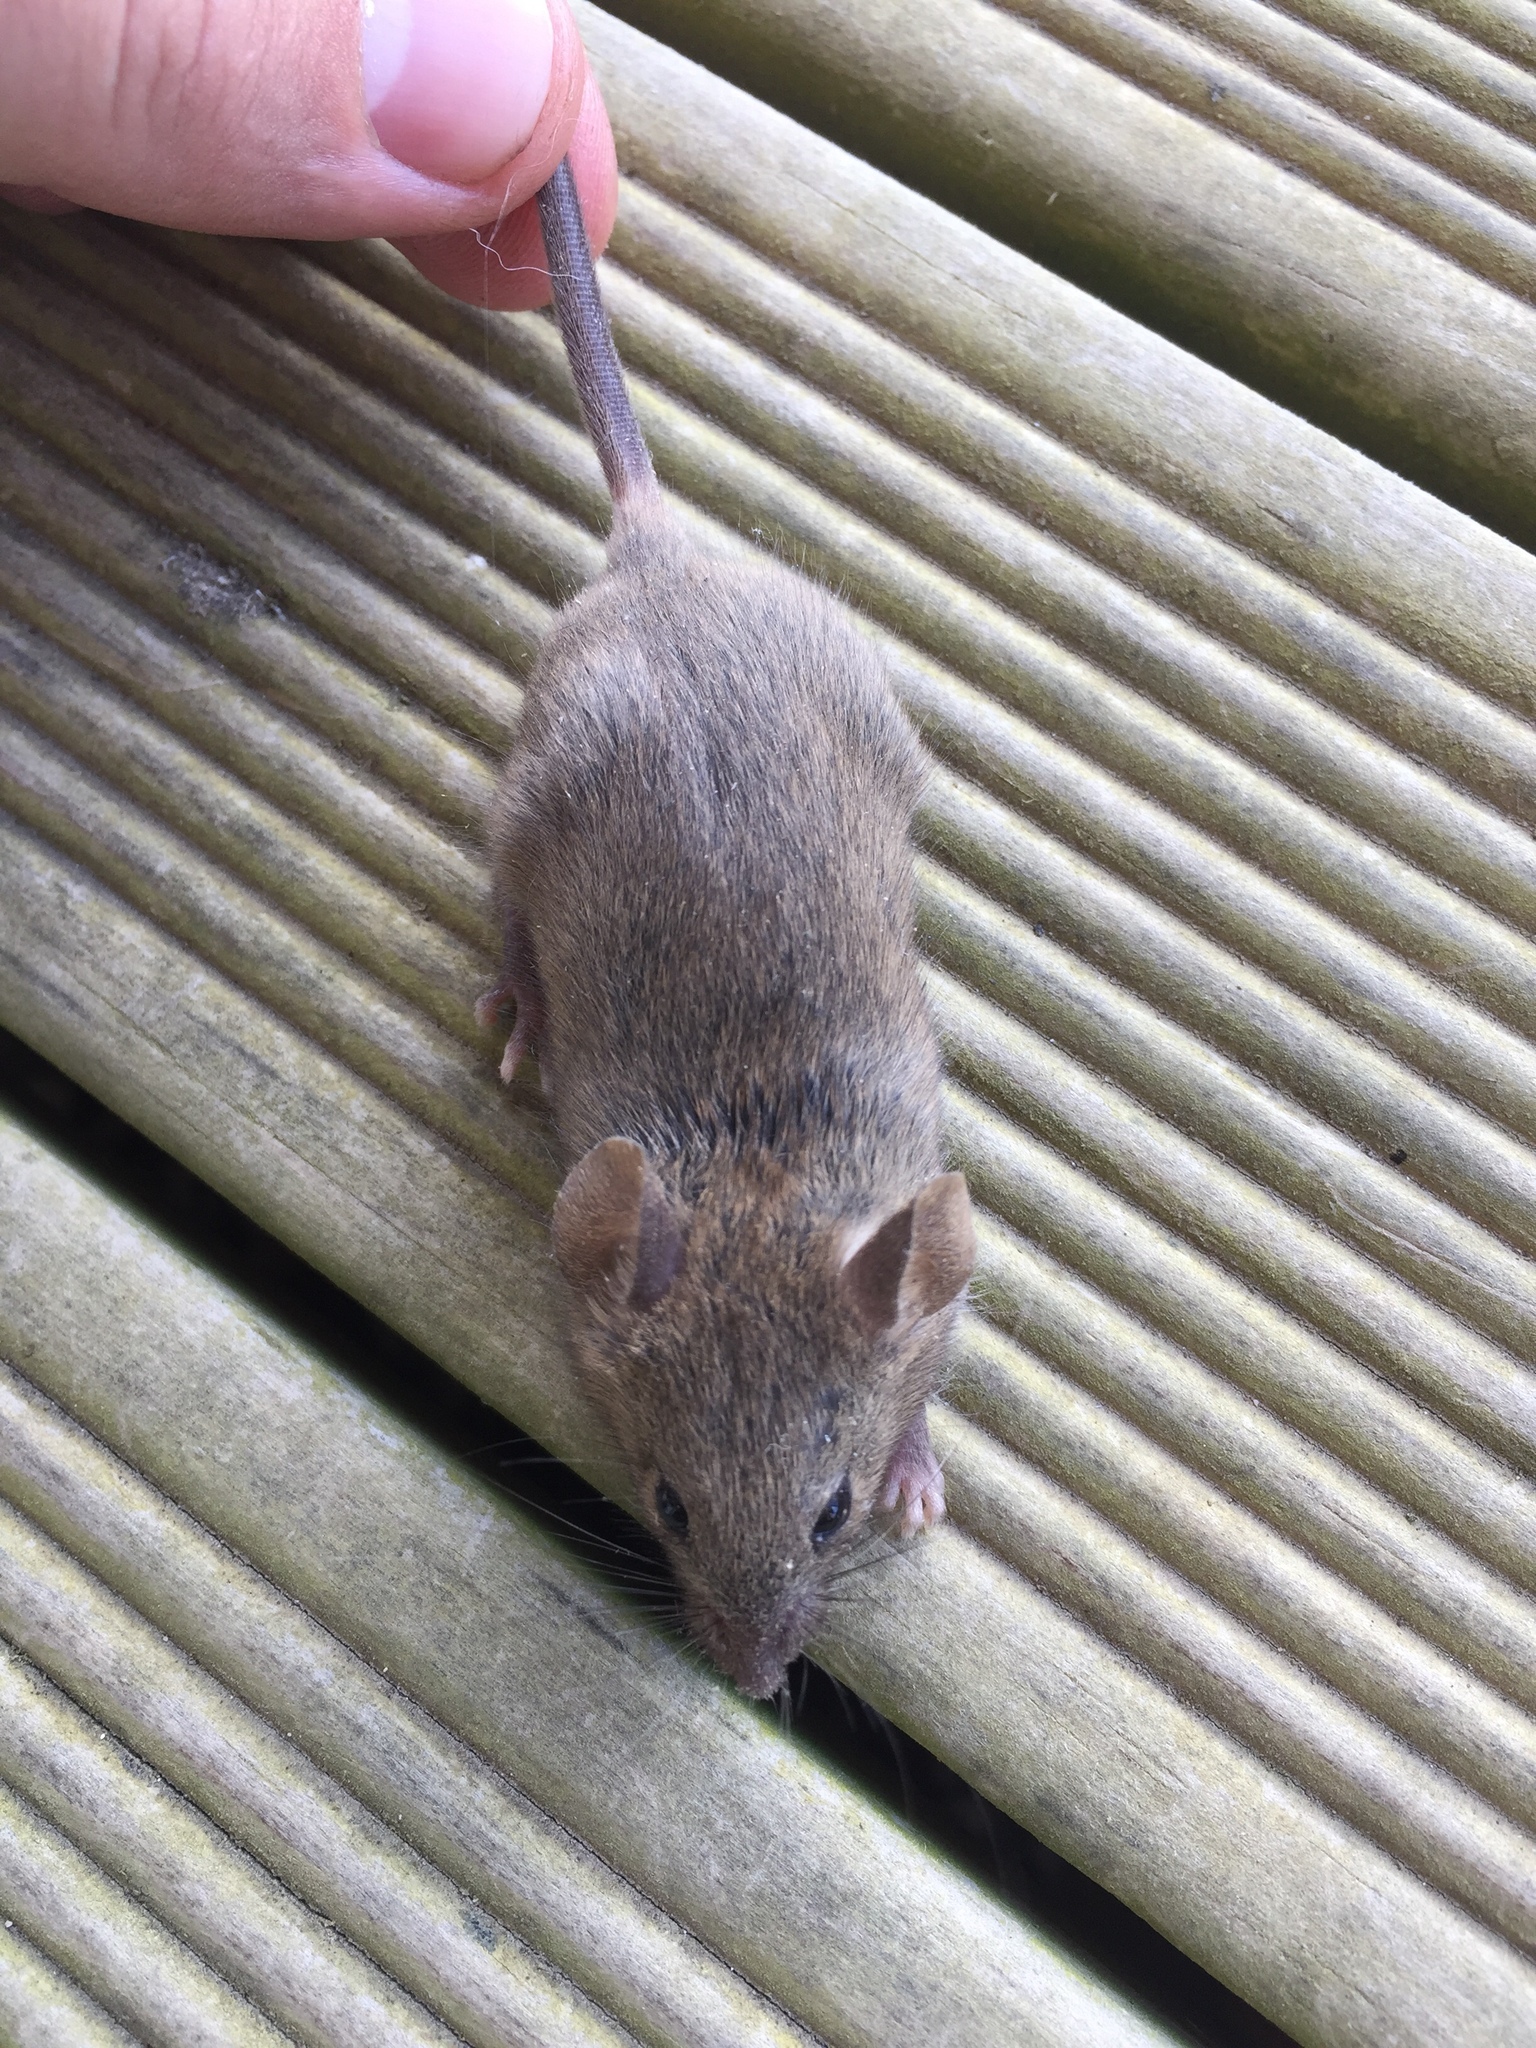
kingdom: Animalia
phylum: Chordata
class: Mammalia
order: Rodentia
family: Muridae
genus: Mus
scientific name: Mus musculus
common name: House mouse
